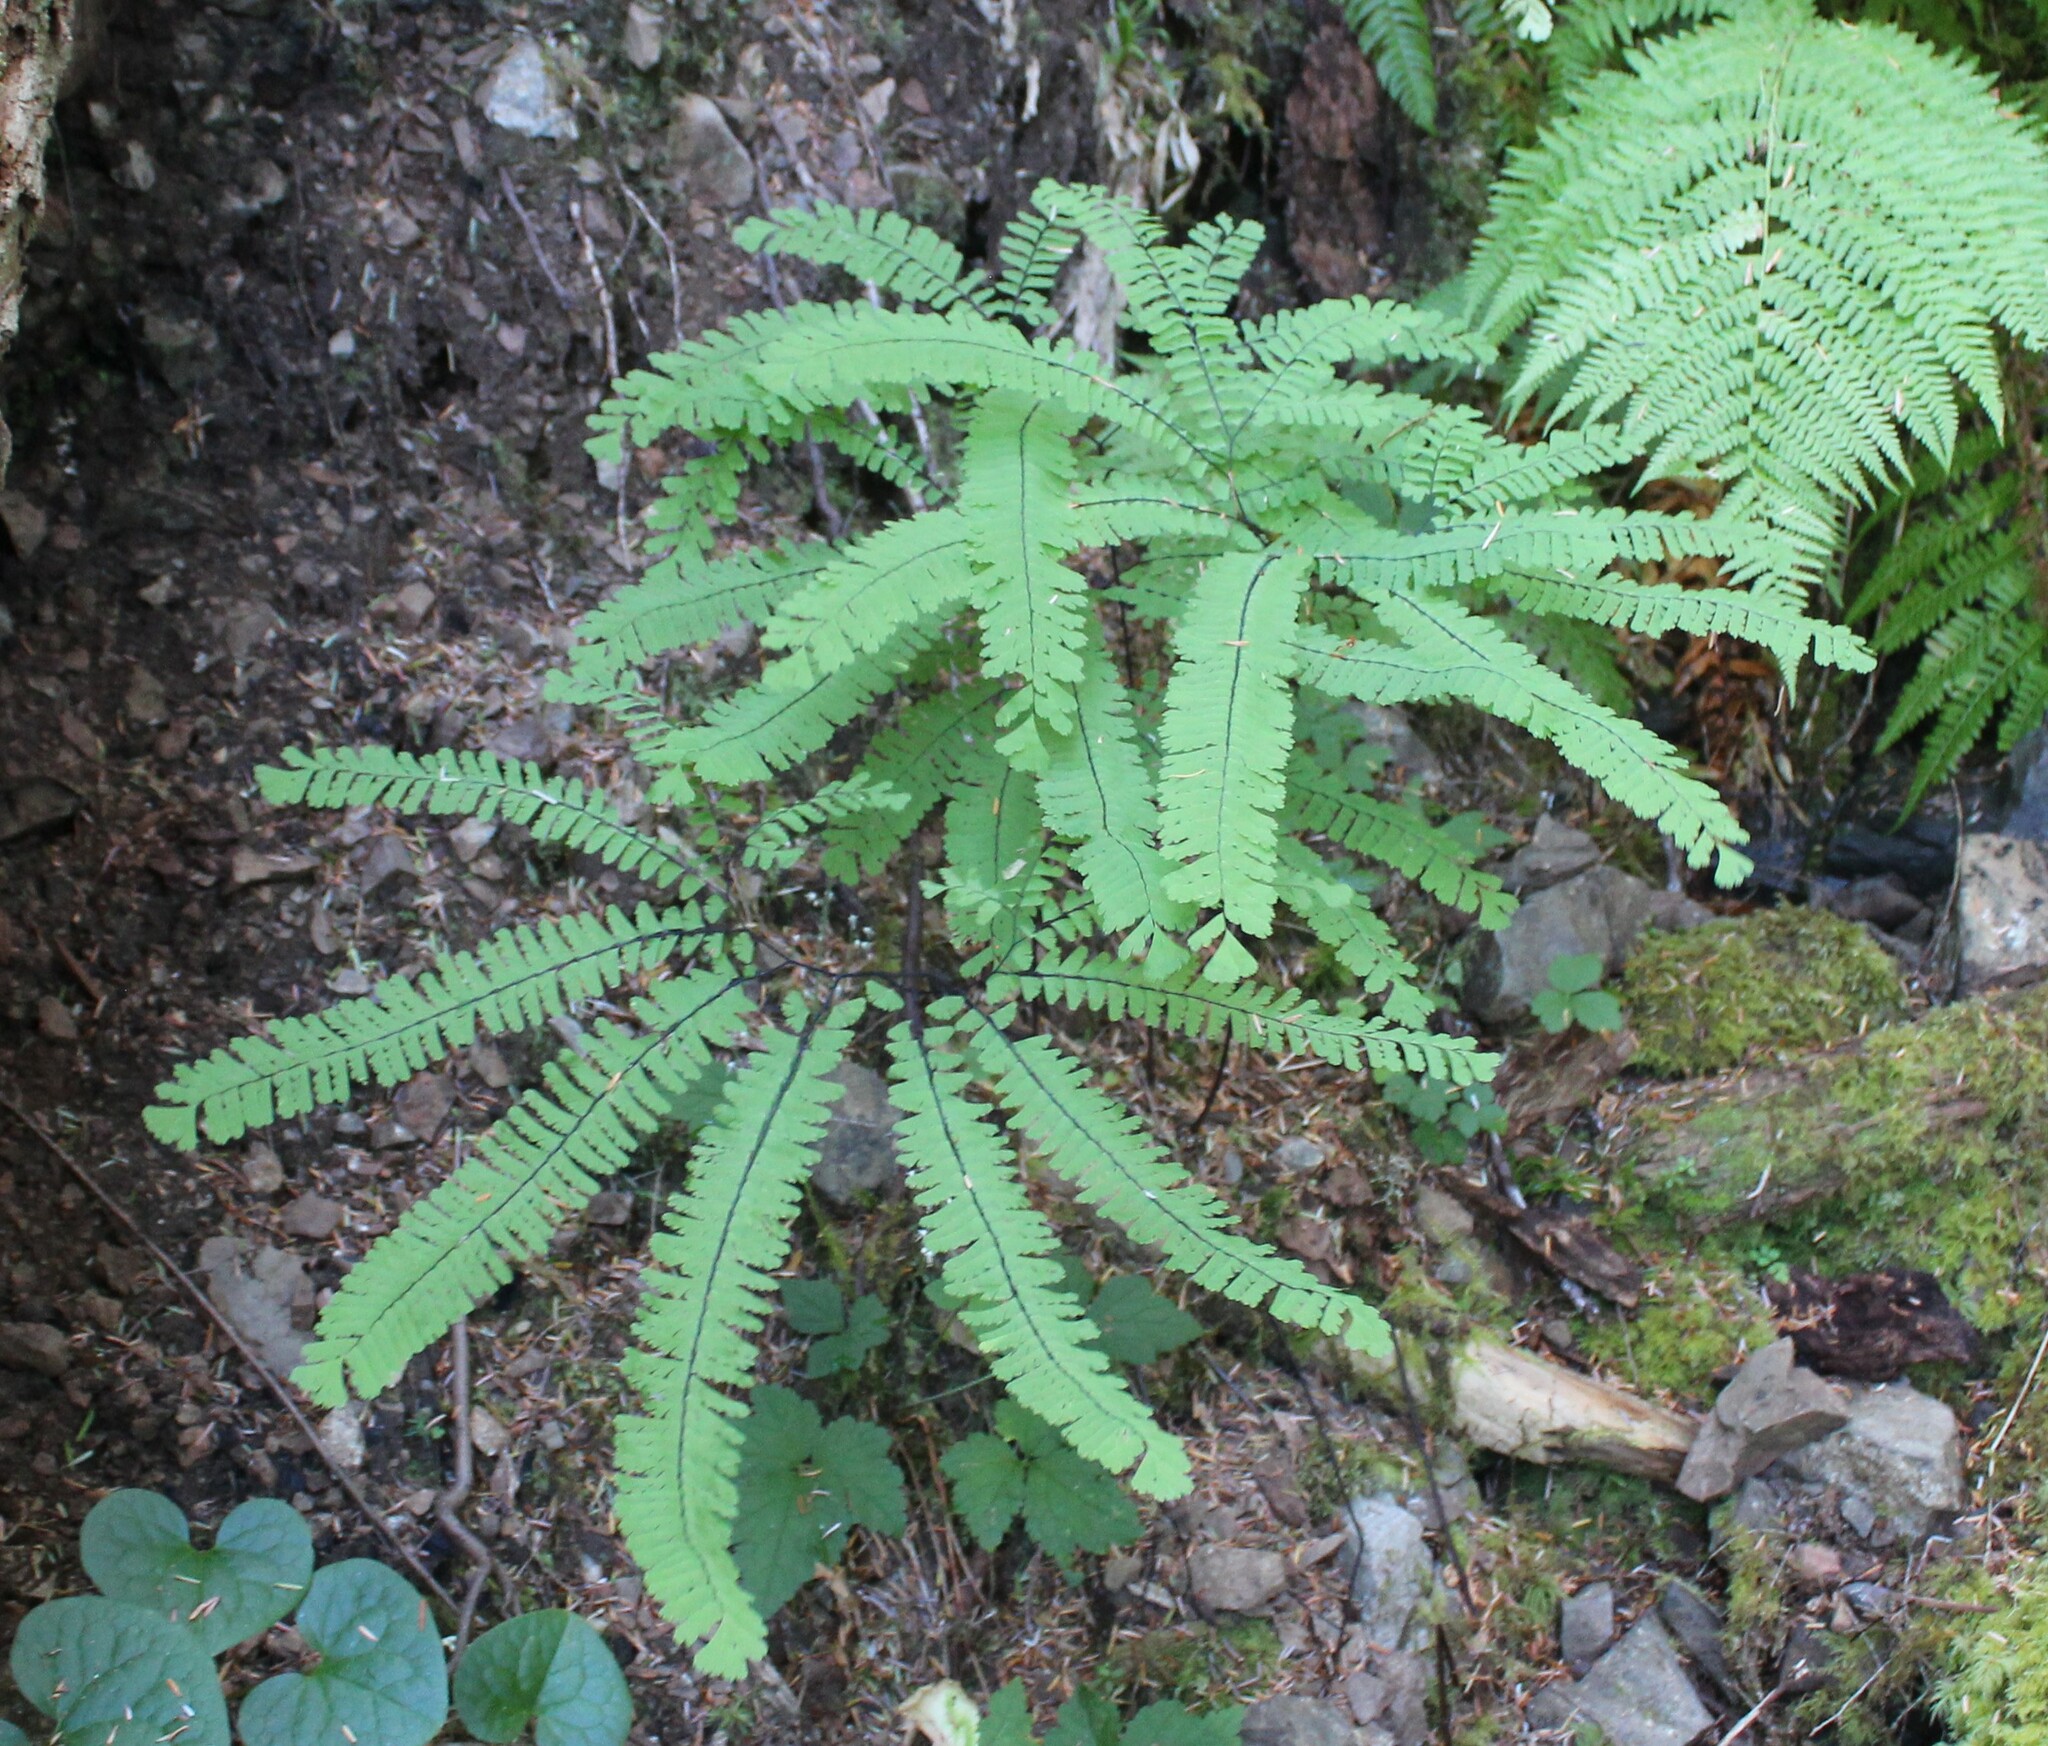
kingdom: Plantae
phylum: Tracheophyta
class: Polypodiopsida
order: Polypodiales
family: Pteridaceae
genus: Adiantum
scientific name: Adiantum aleuticum
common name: Aleutian maidenhair fern
